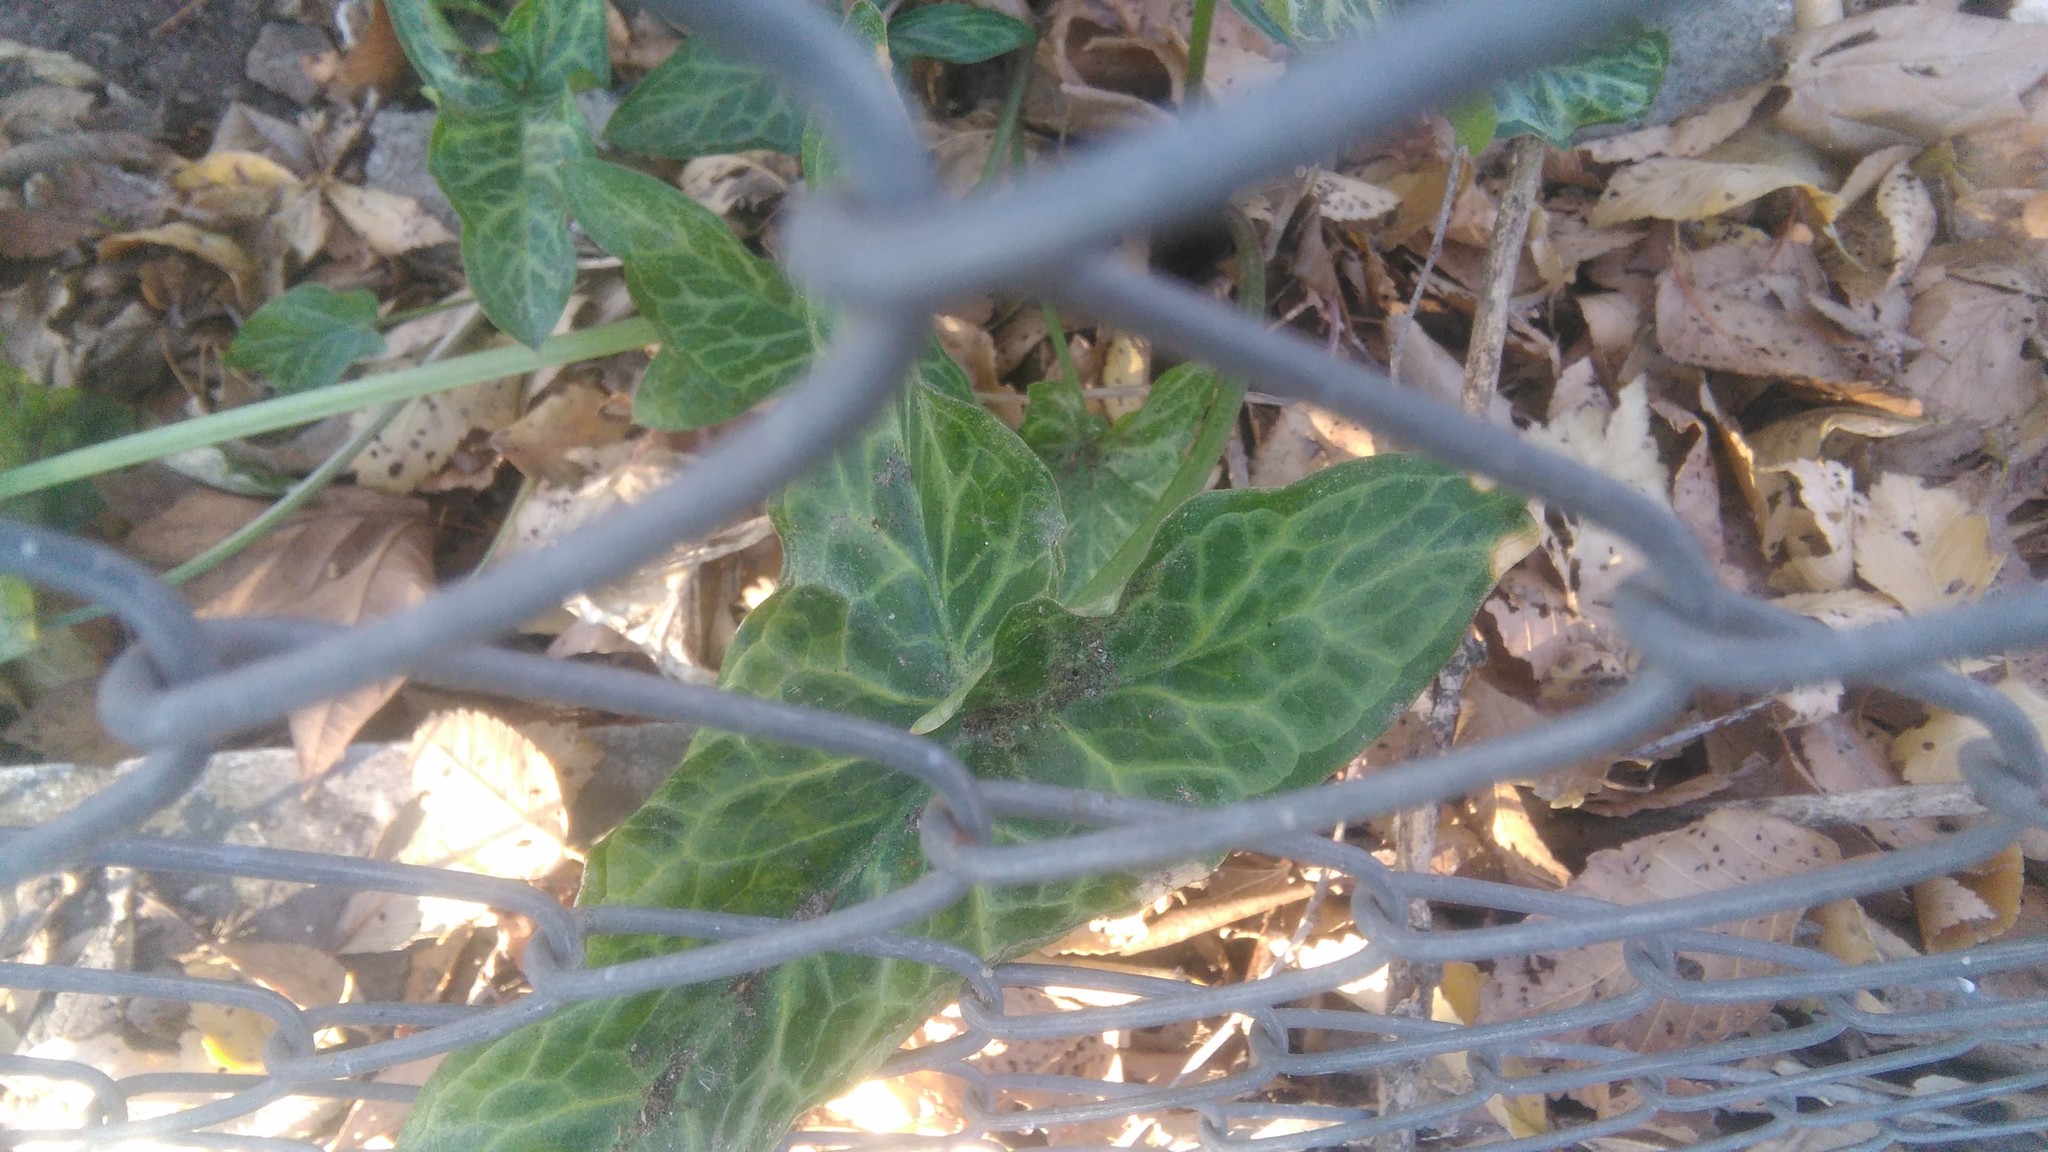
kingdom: Plantae
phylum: Tracheophyta
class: Liliopsida
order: Alismatales
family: Araceae
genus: Arum
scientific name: Arum italicum
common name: Italian lords-and-ladies
